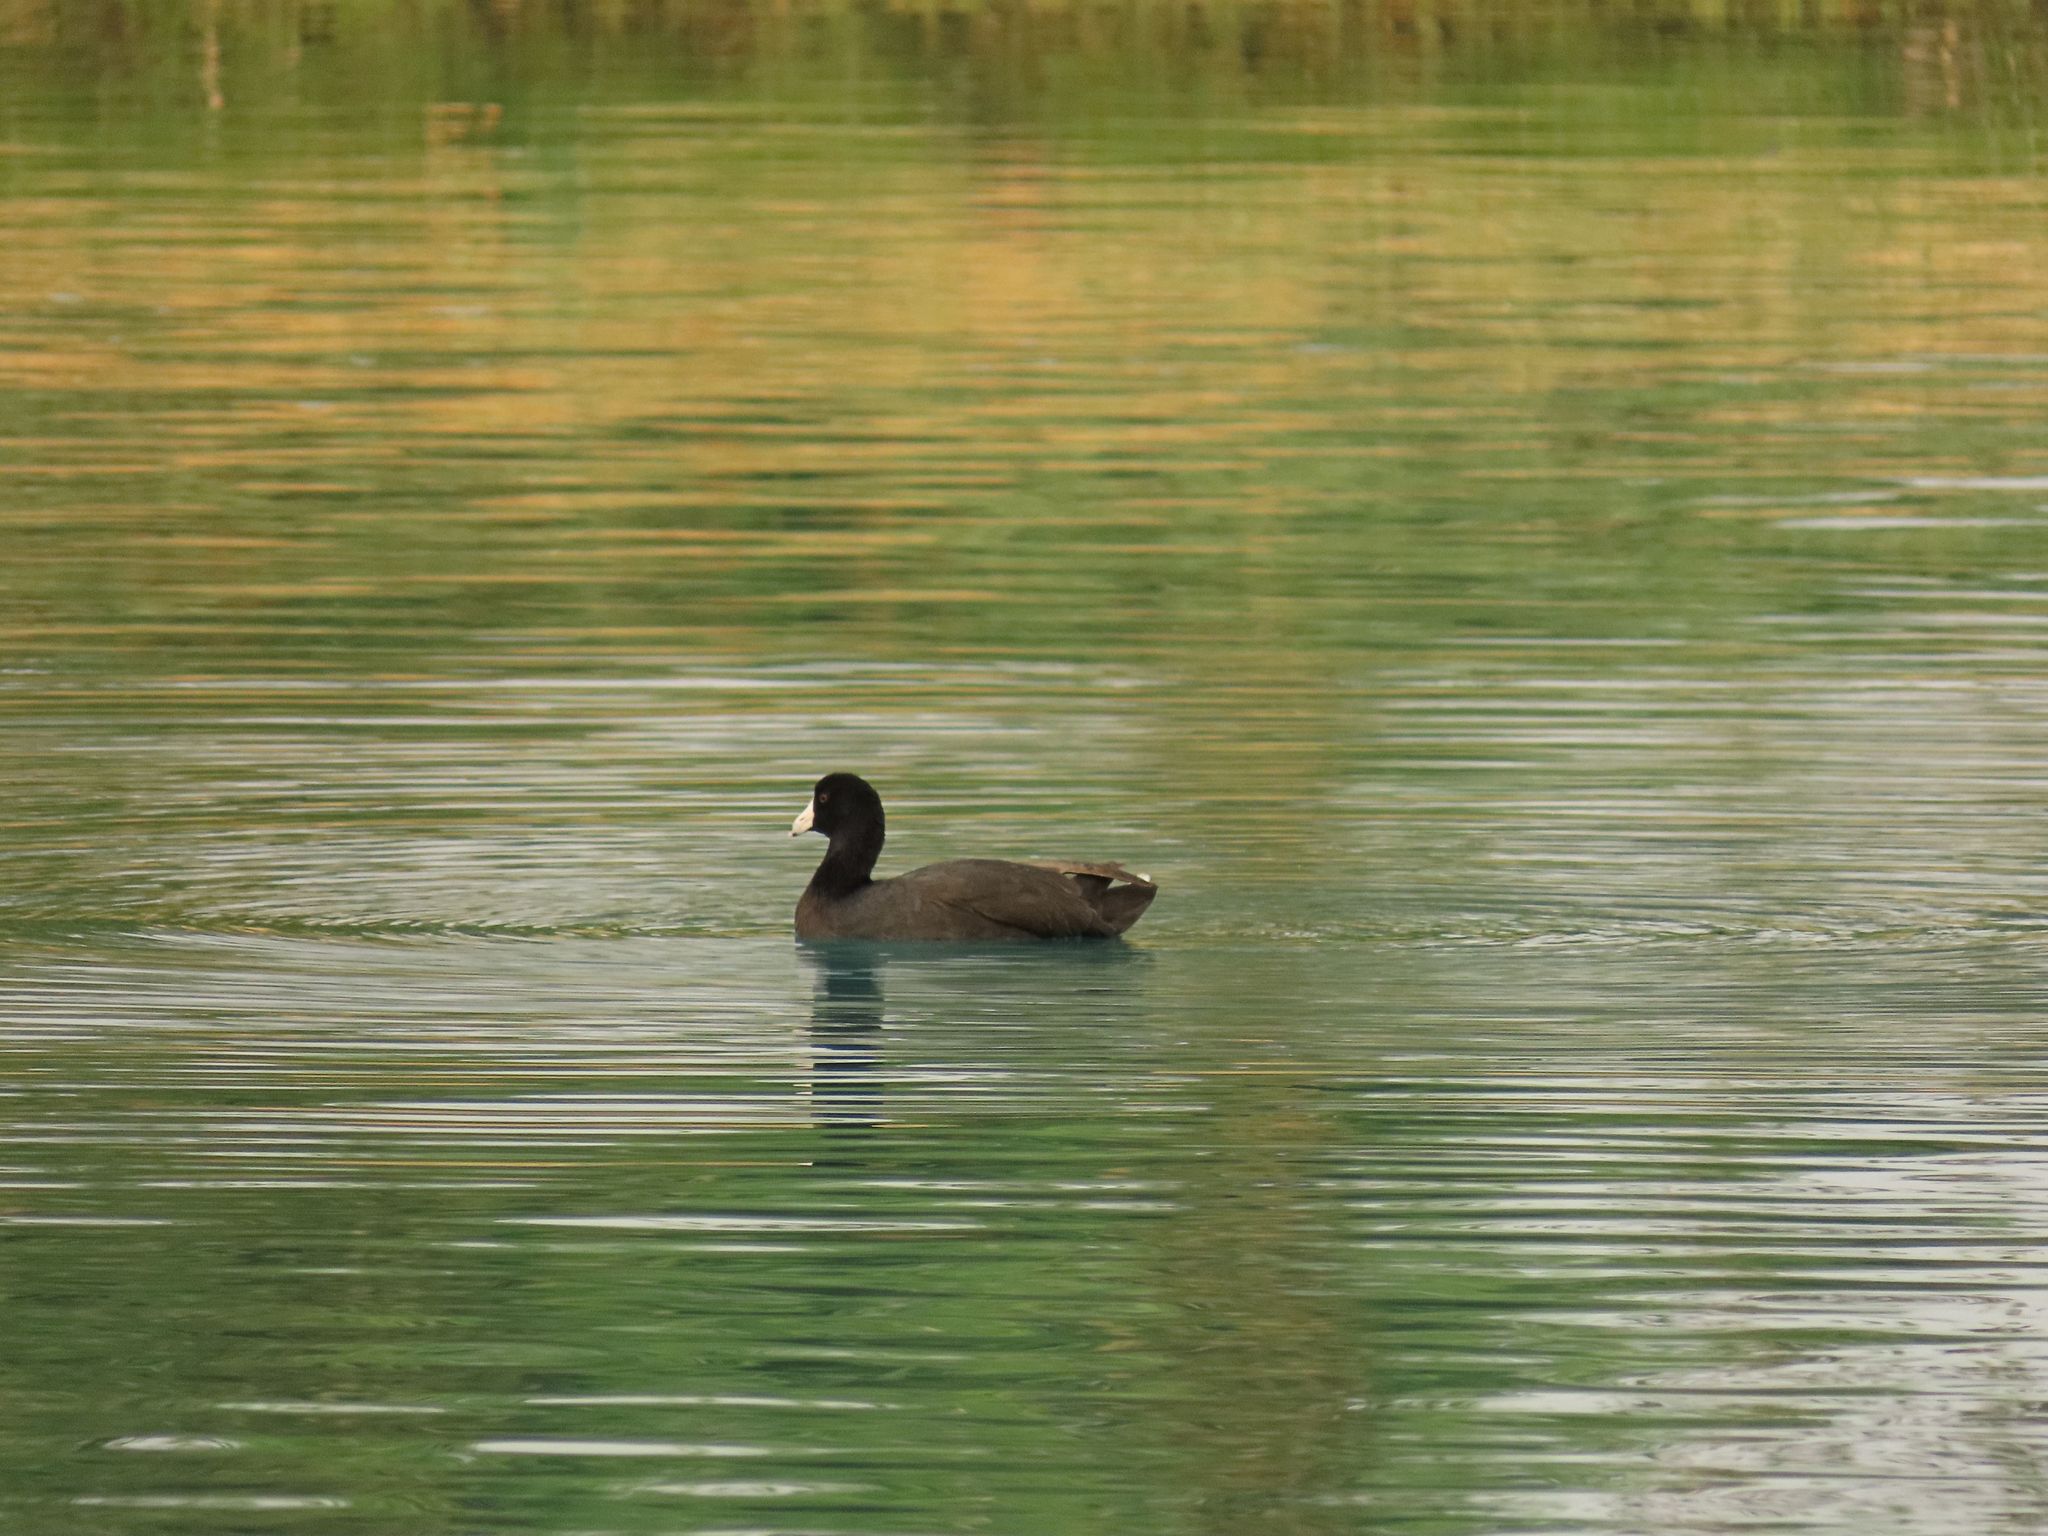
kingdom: Animalia
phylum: Chordata
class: Aves
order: Gruiformes
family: Rallidae
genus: Fulica
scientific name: Fulica americana
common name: American coot
